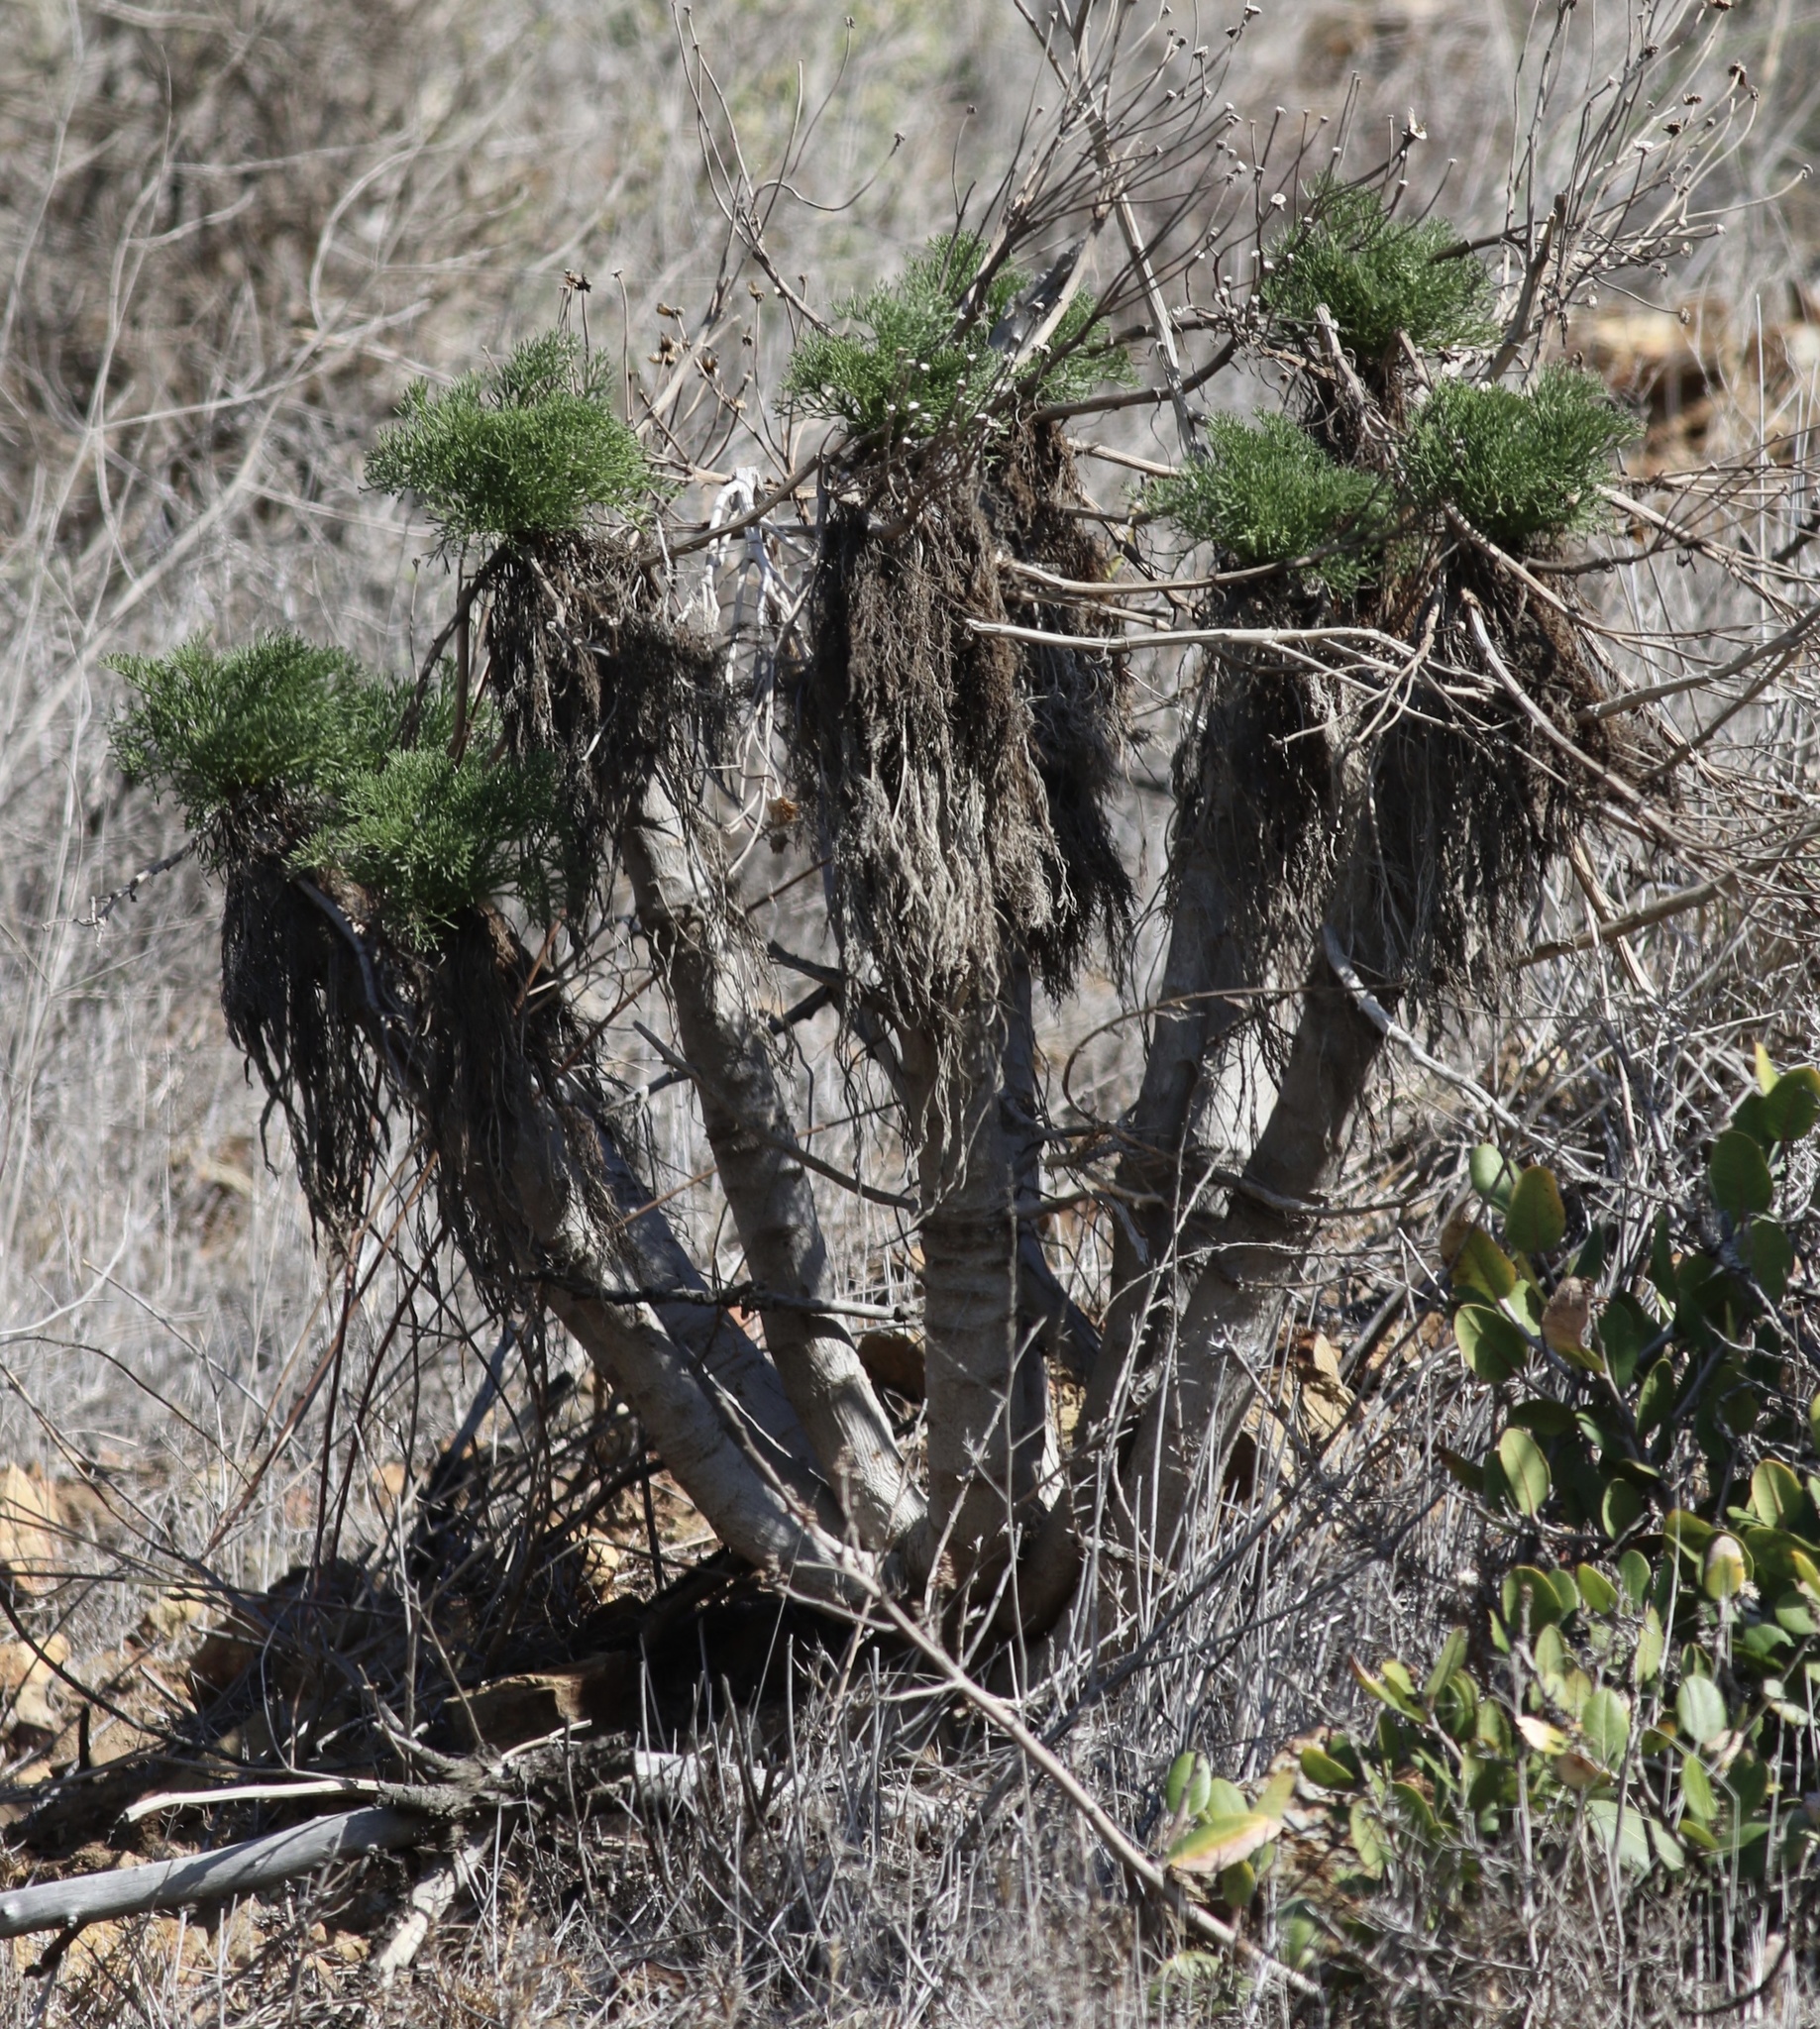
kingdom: Plantae
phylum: Tracheophyta
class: Magnoliopsida
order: Asterales
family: Asteraceae
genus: Coreopsis
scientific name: Coreopsis gigantea
